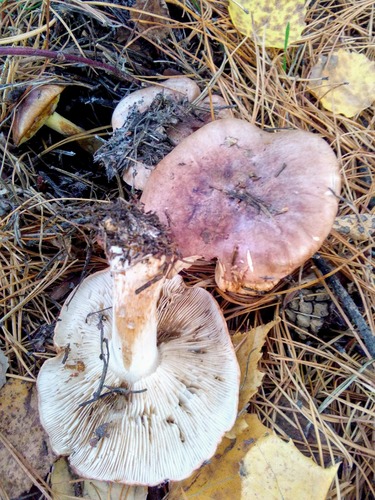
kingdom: Fungi
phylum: Basidiomycota
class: Agaricomycetes
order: Agaricales
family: Tricholomataceae
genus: Tricholoma
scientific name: Tricholoma
